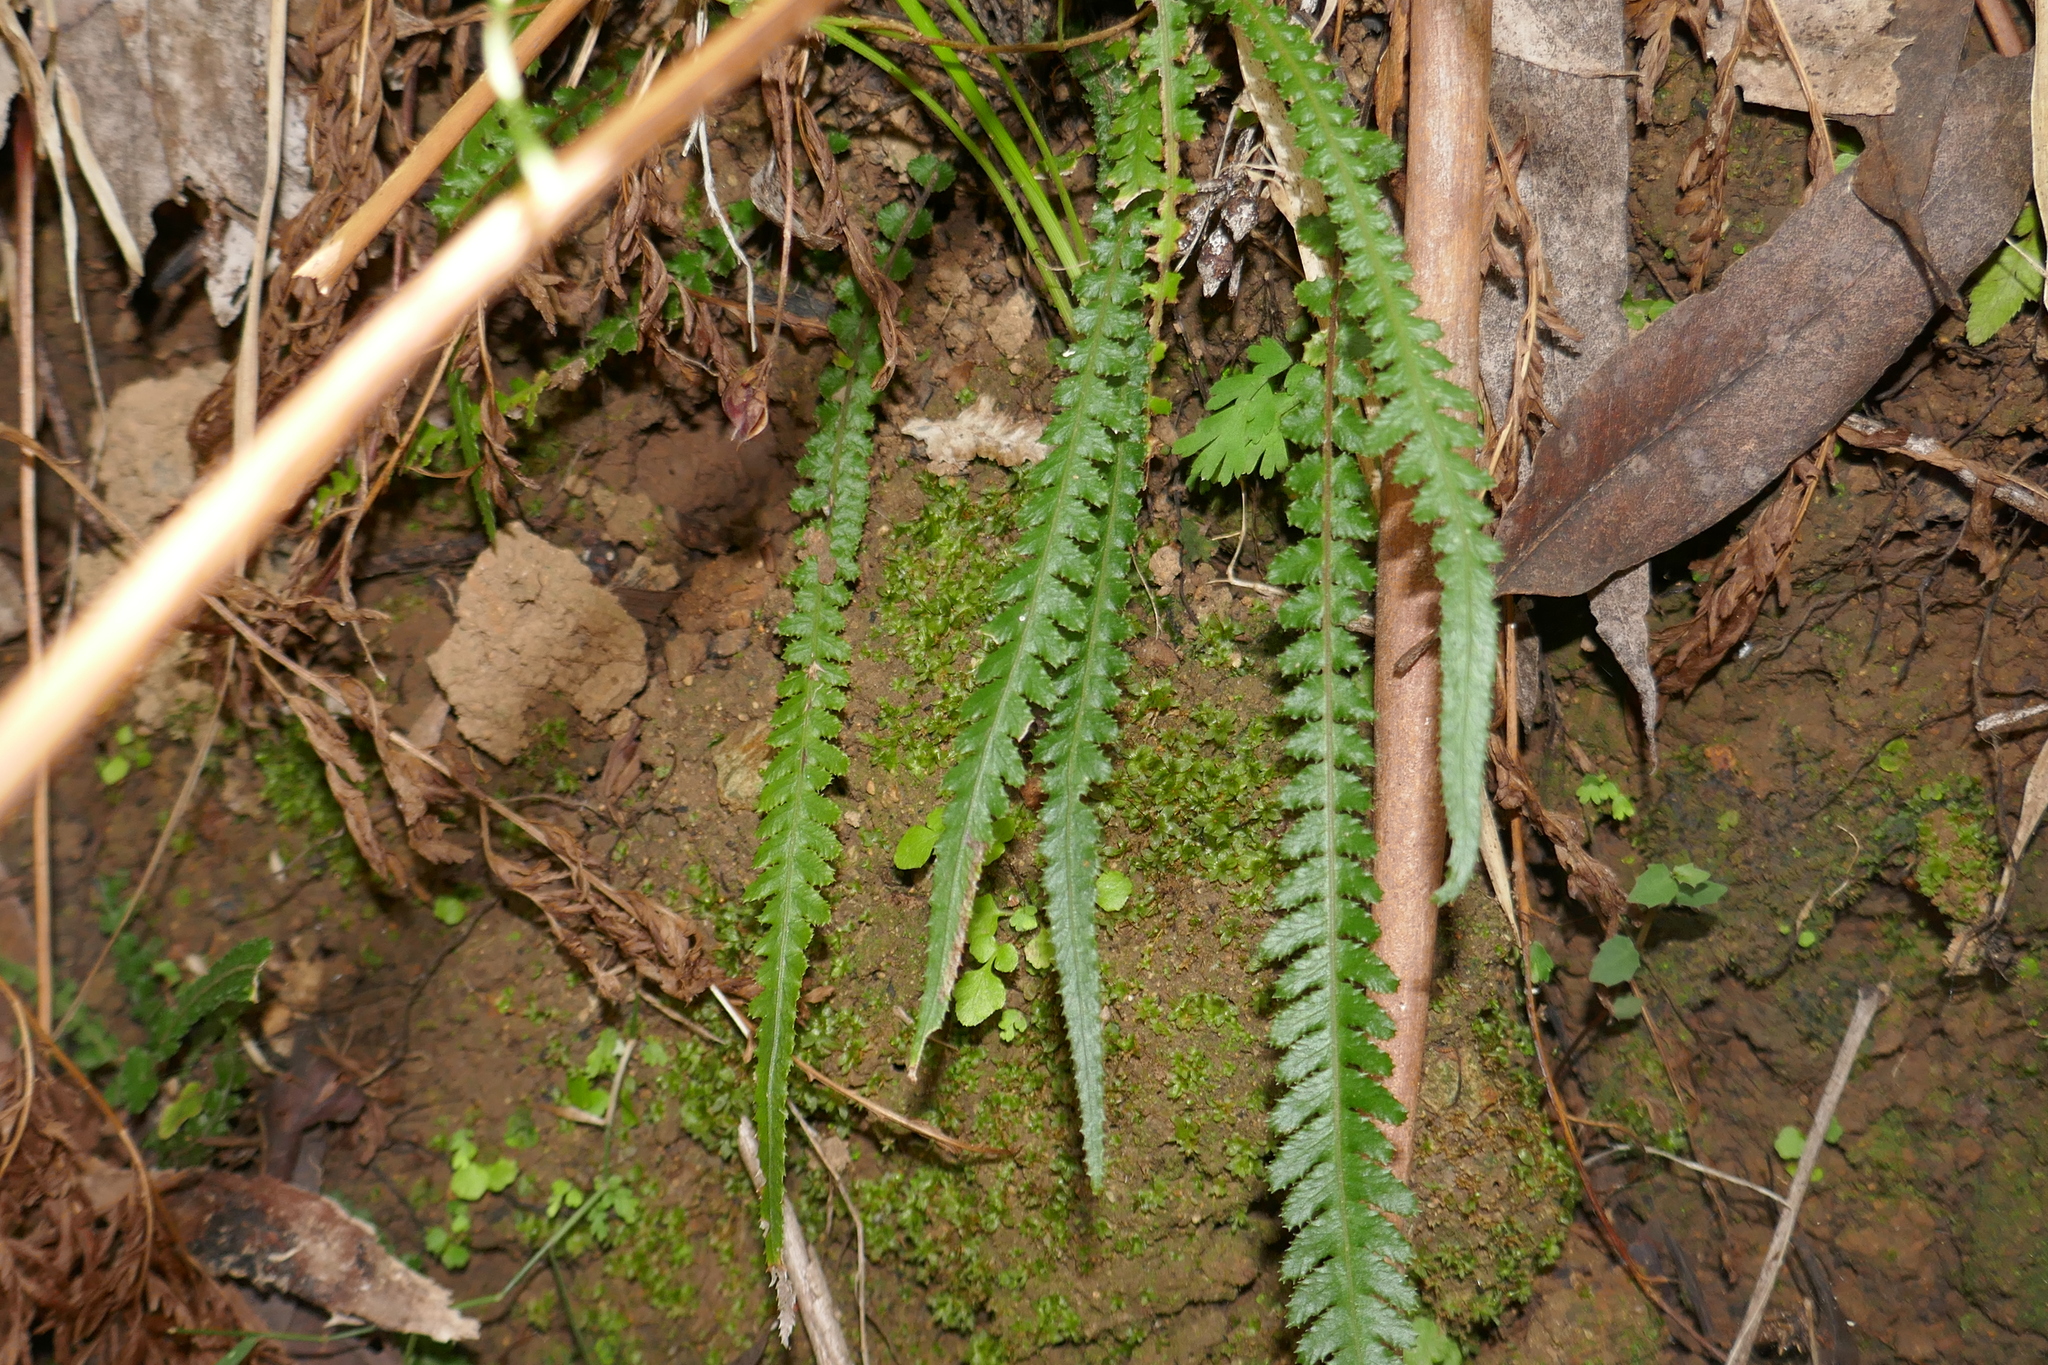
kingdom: Plantae
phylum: Tracheophyta
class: Polypodiopsida
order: Polypodiales
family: Blechnaceae
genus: Doodia
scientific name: Doodia heterophylla
